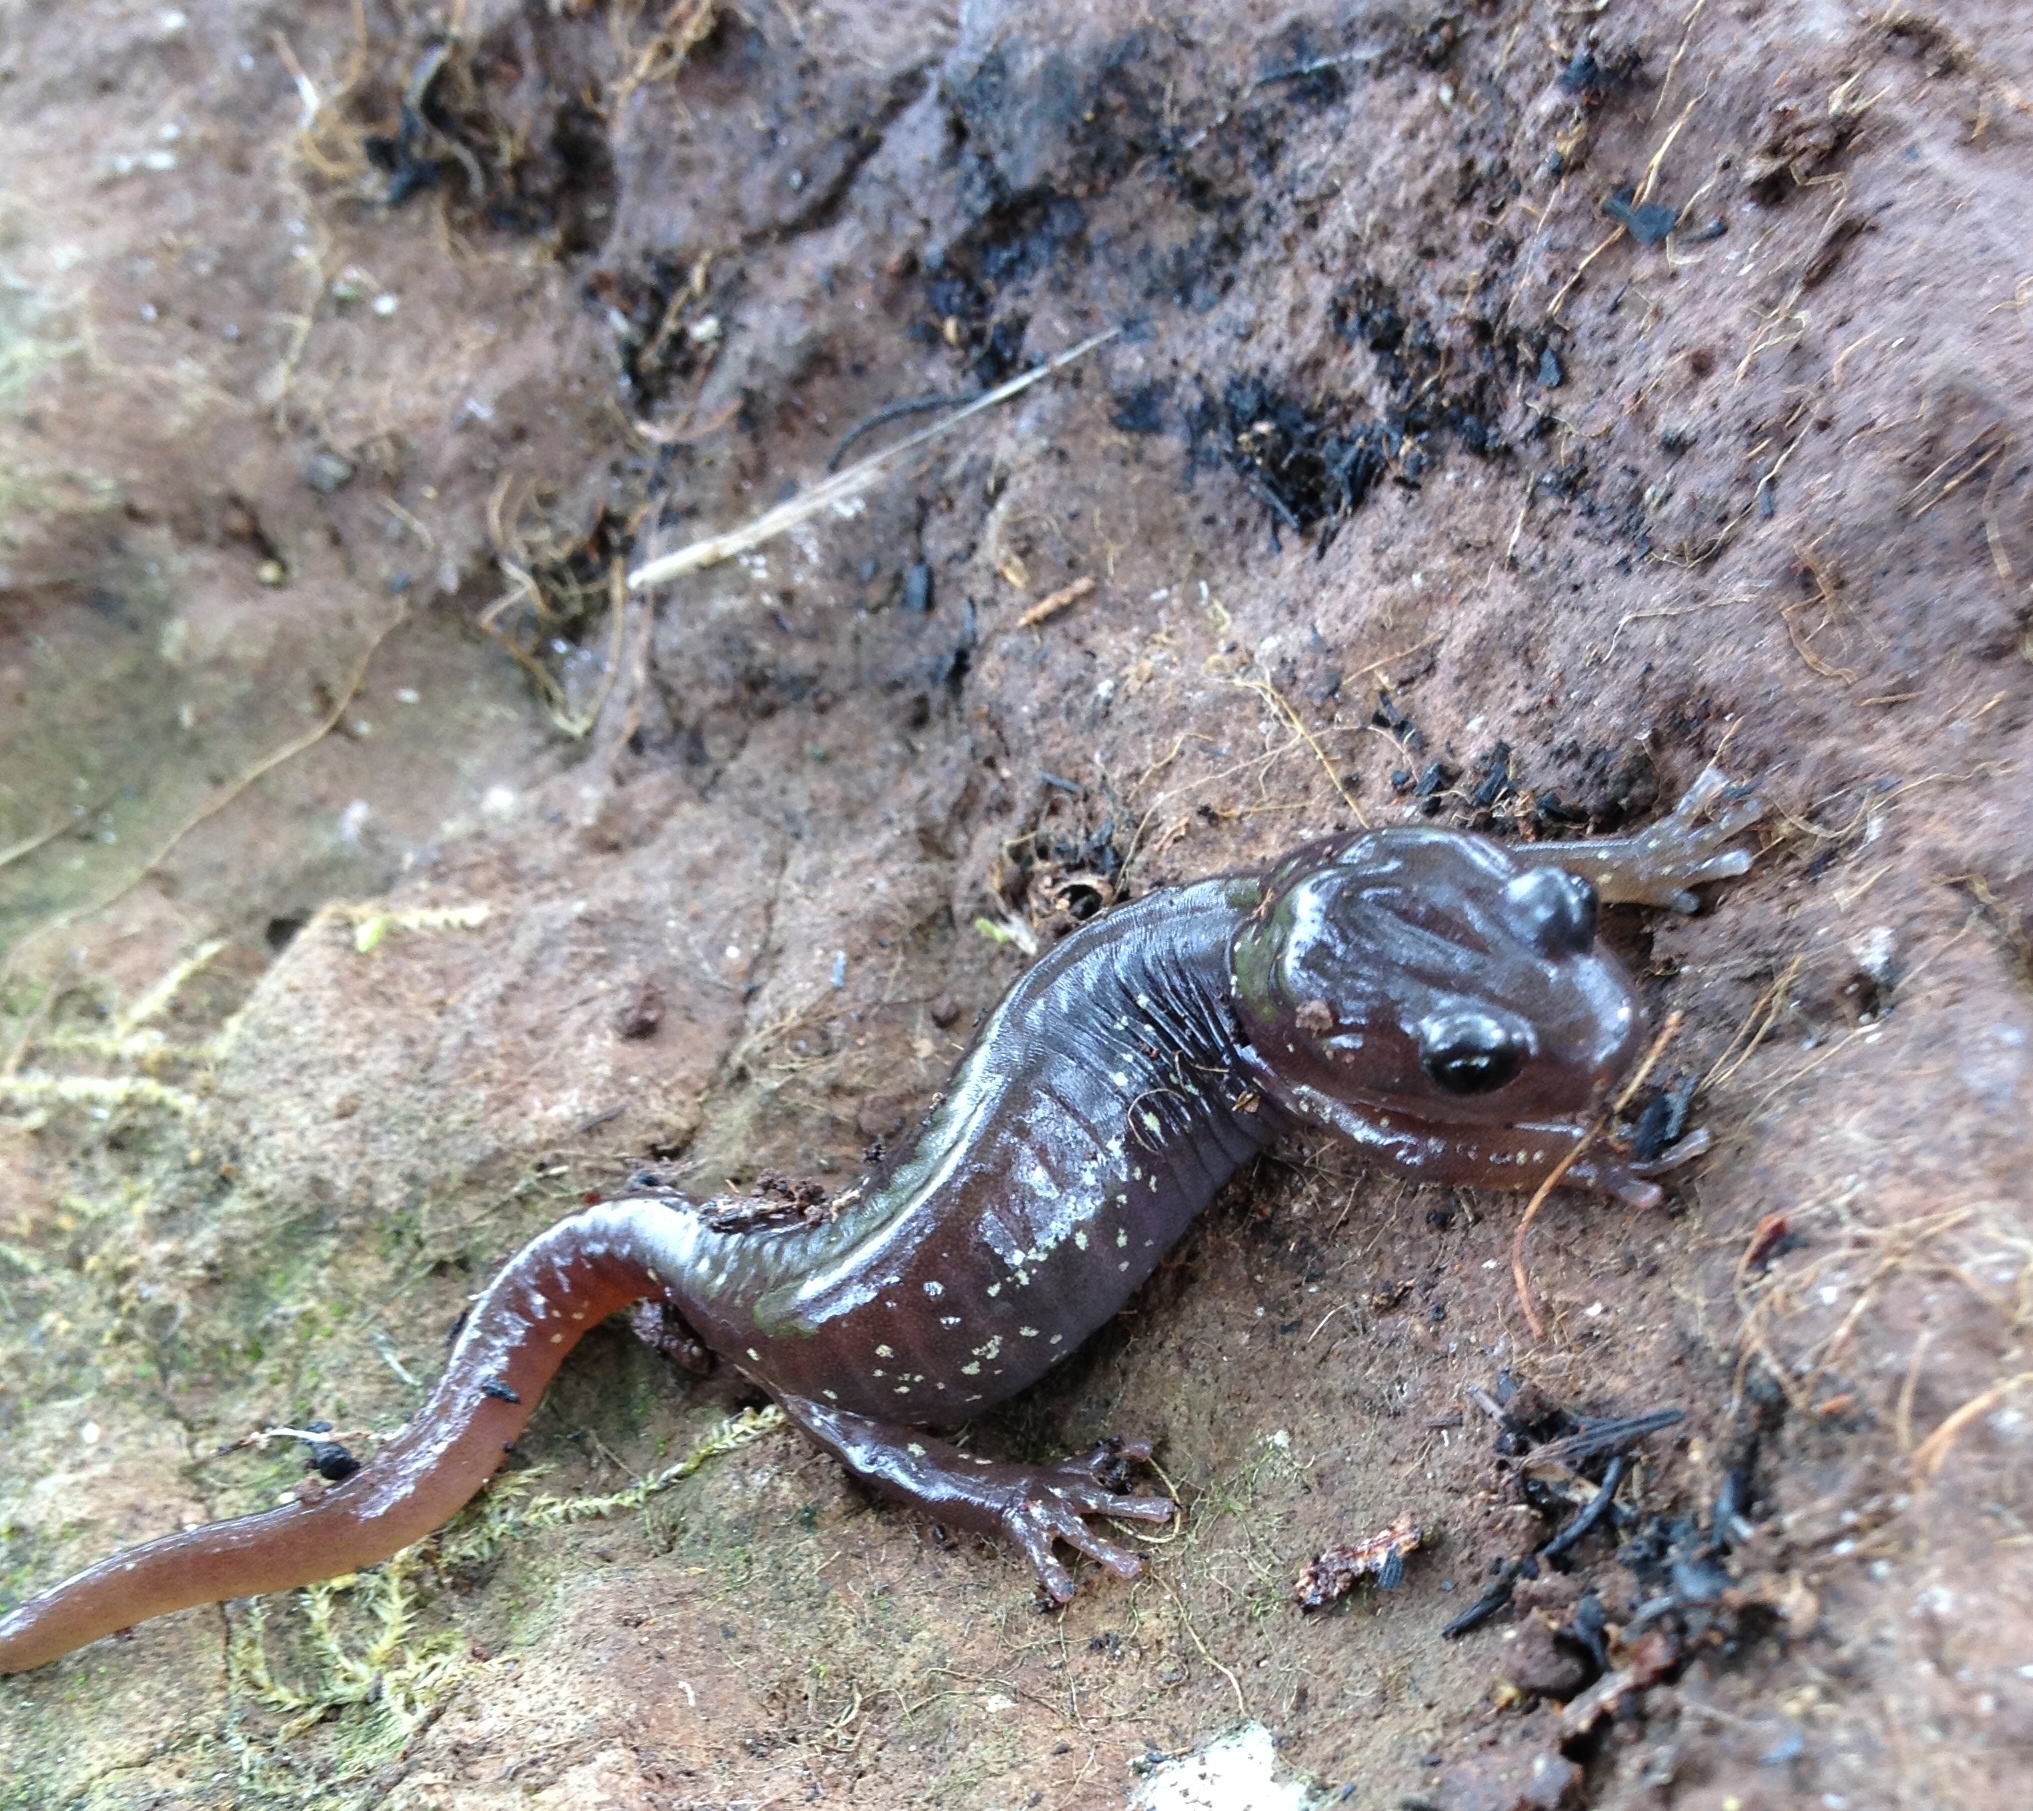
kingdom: Animalia
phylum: Chordata
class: Amphibia
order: Caudata
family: Plethodontidae
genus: Aneides
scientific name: Aneides lugubris
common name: Arboreal salamander
